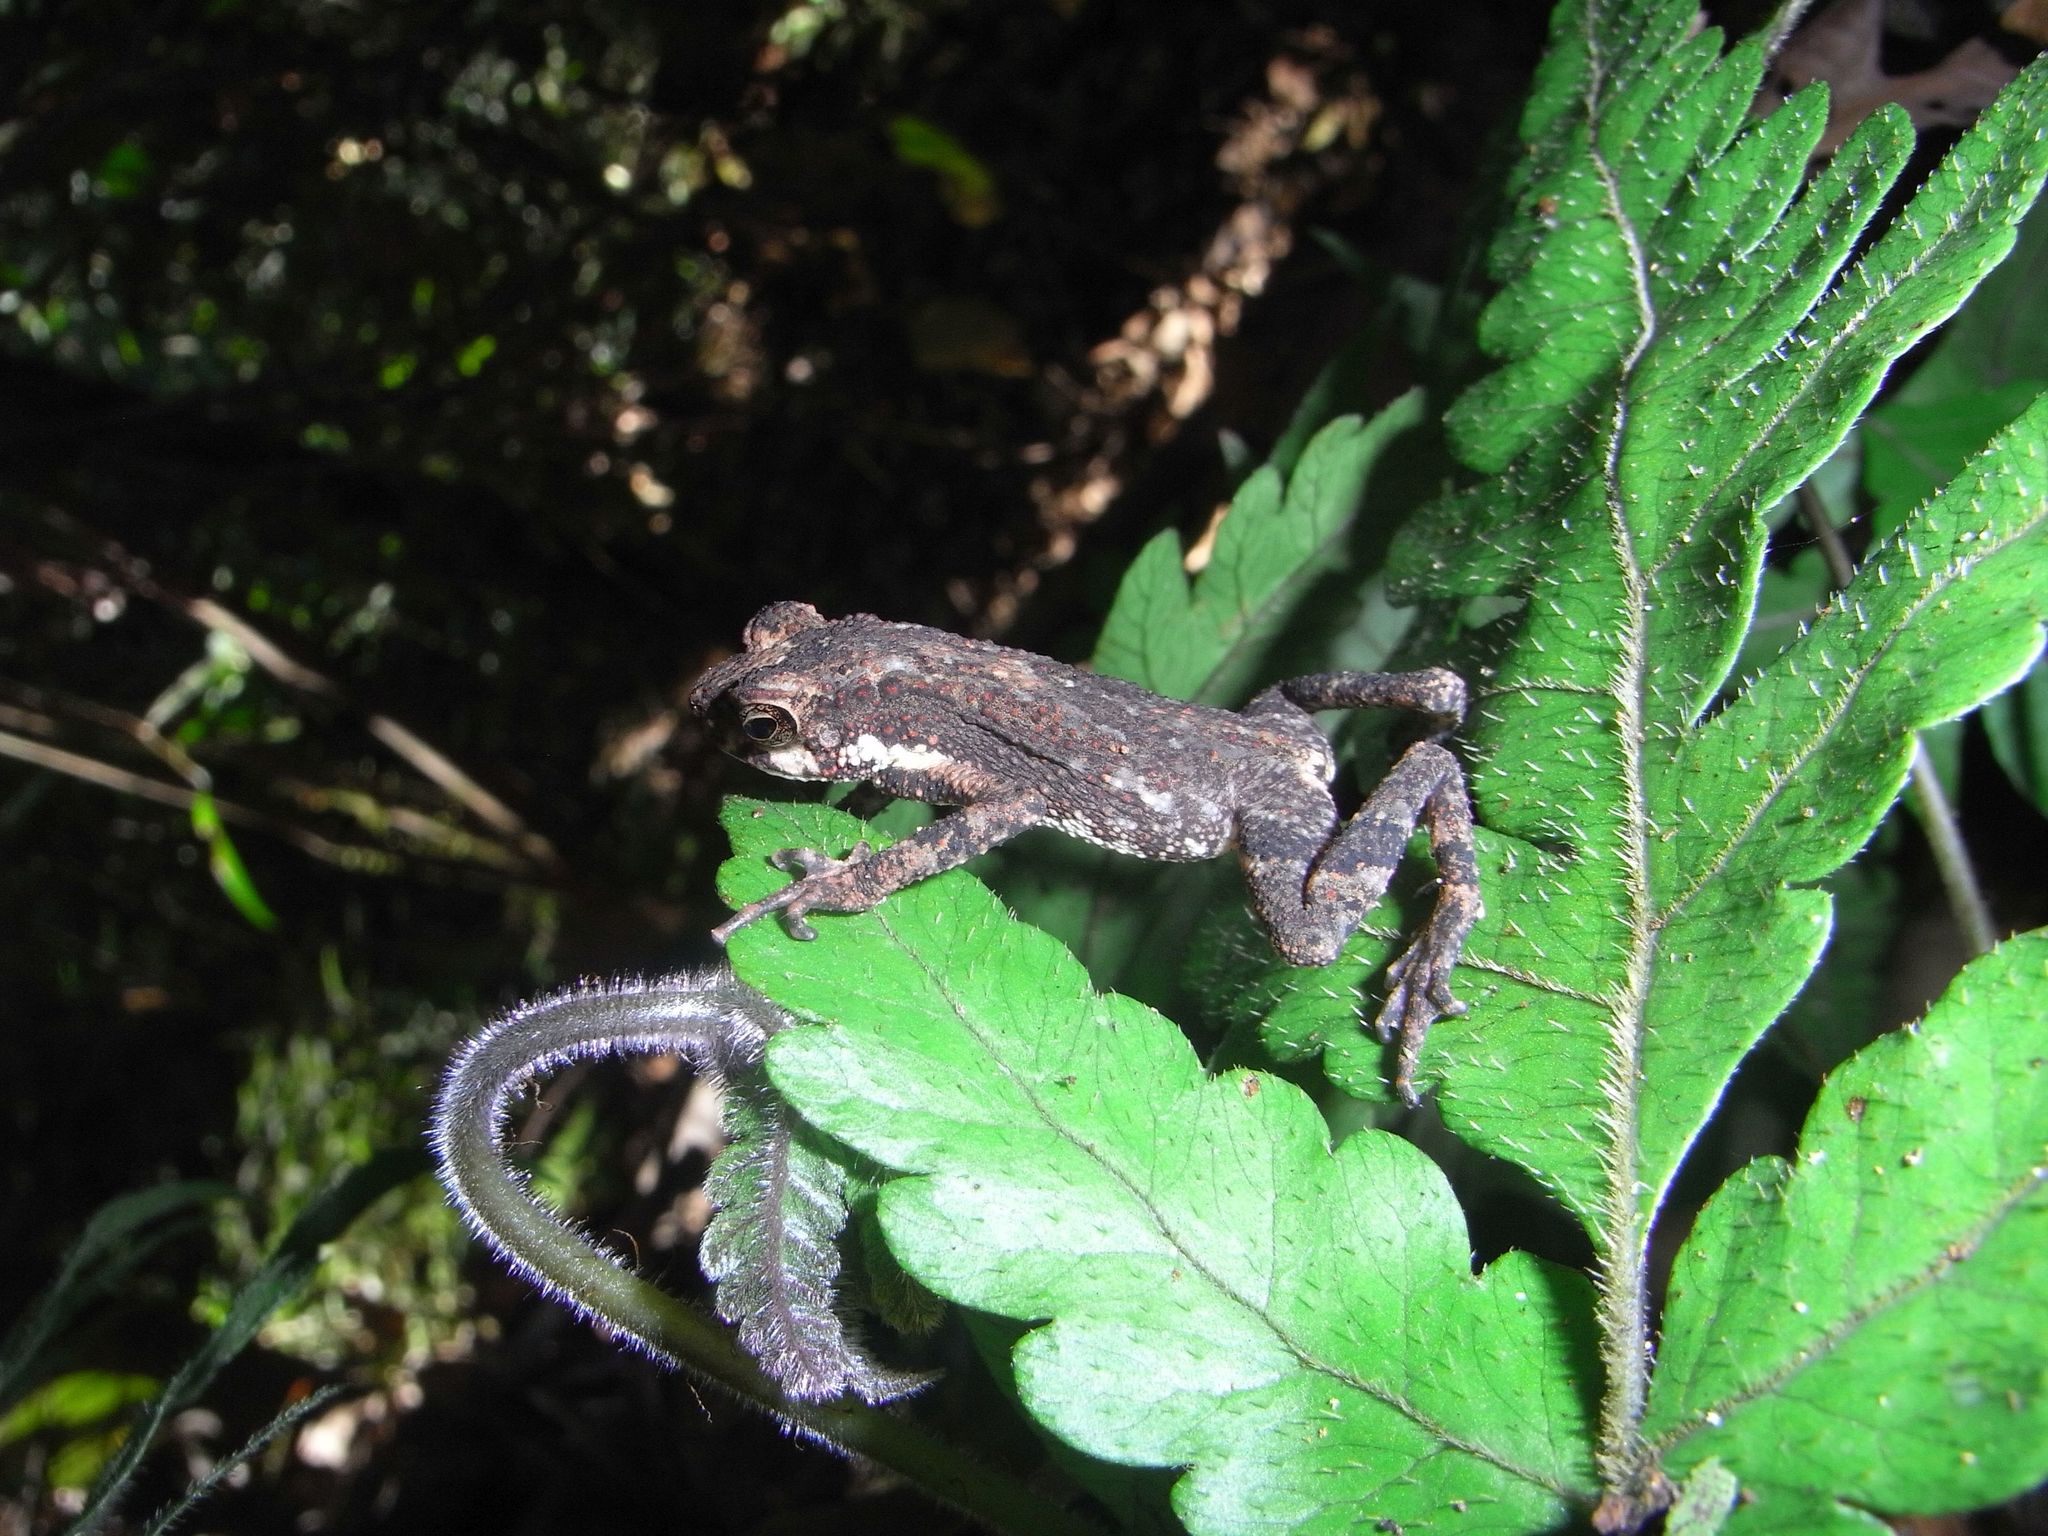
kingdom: Animalia
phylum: Chordata
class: Amphibia
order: Anura
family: Bufonidae
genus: Adenomus
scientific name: Adenomus kelaartii
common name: Kelaart's toad
